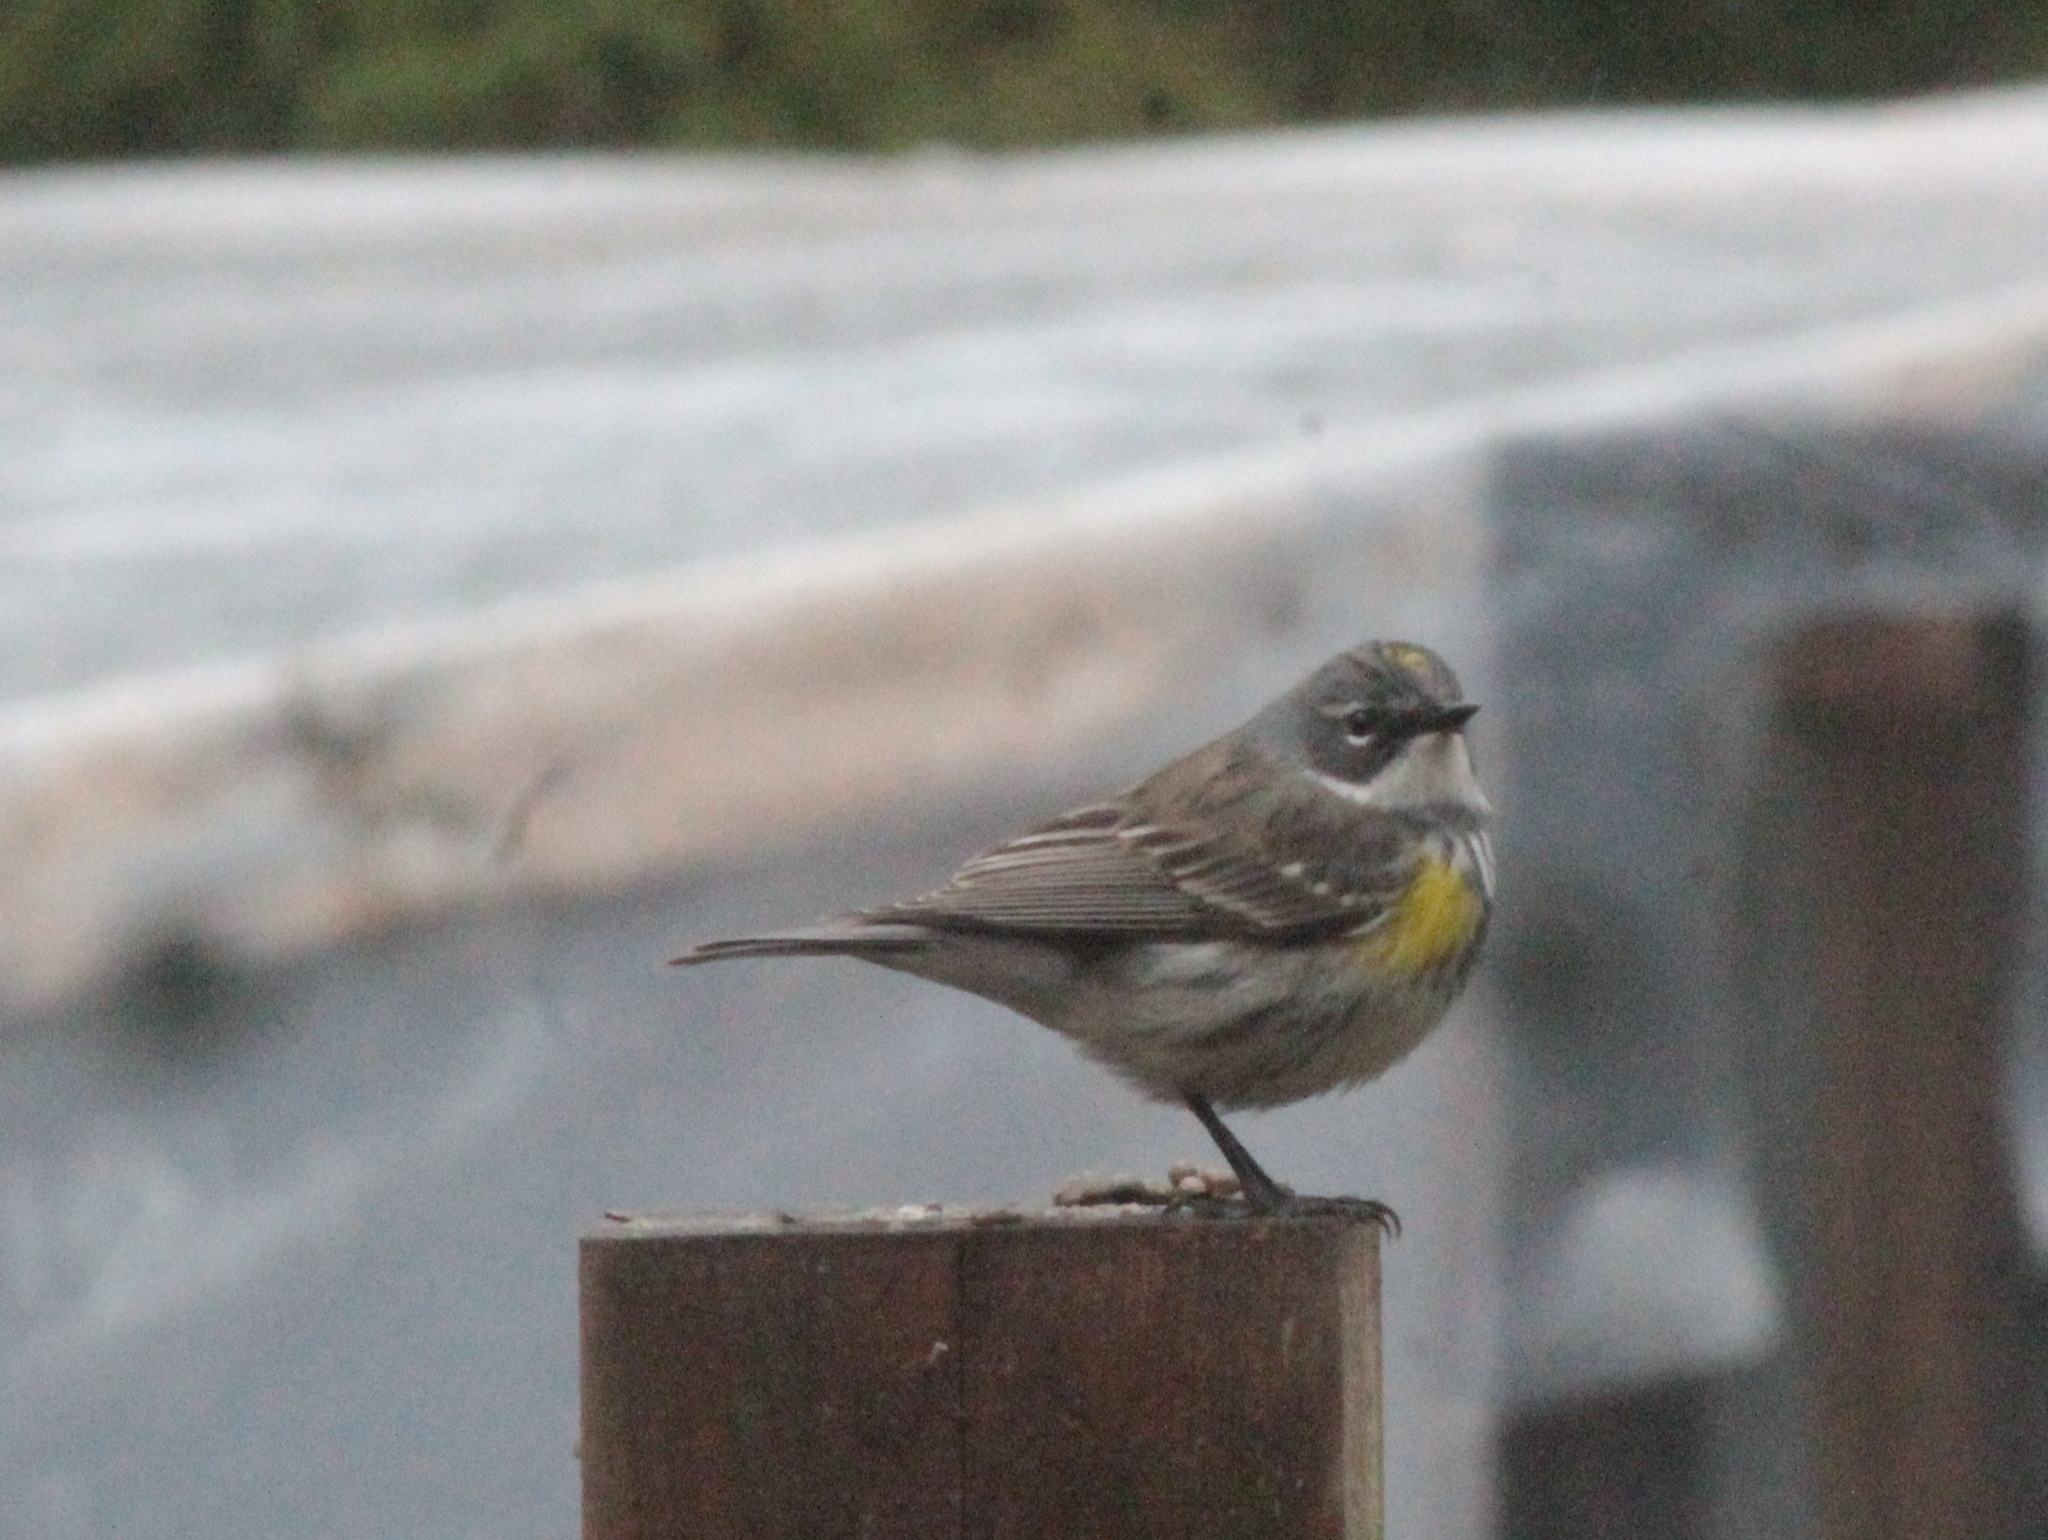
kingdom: Animalia
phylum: Chordata
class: Aves
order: Passeriformes
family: Parulidae
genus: Setophaga
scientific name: Setophaga coronata
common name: Myrtle warbler
